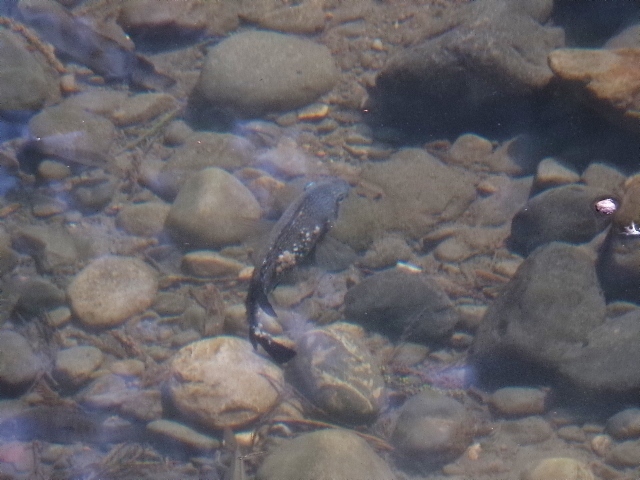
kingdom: Animalia
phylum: Chordata
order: Perciformes
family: Cichlidae
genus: Herichthys
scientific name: Herichthys cyanoguttatus
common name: Rio grande cichlid
